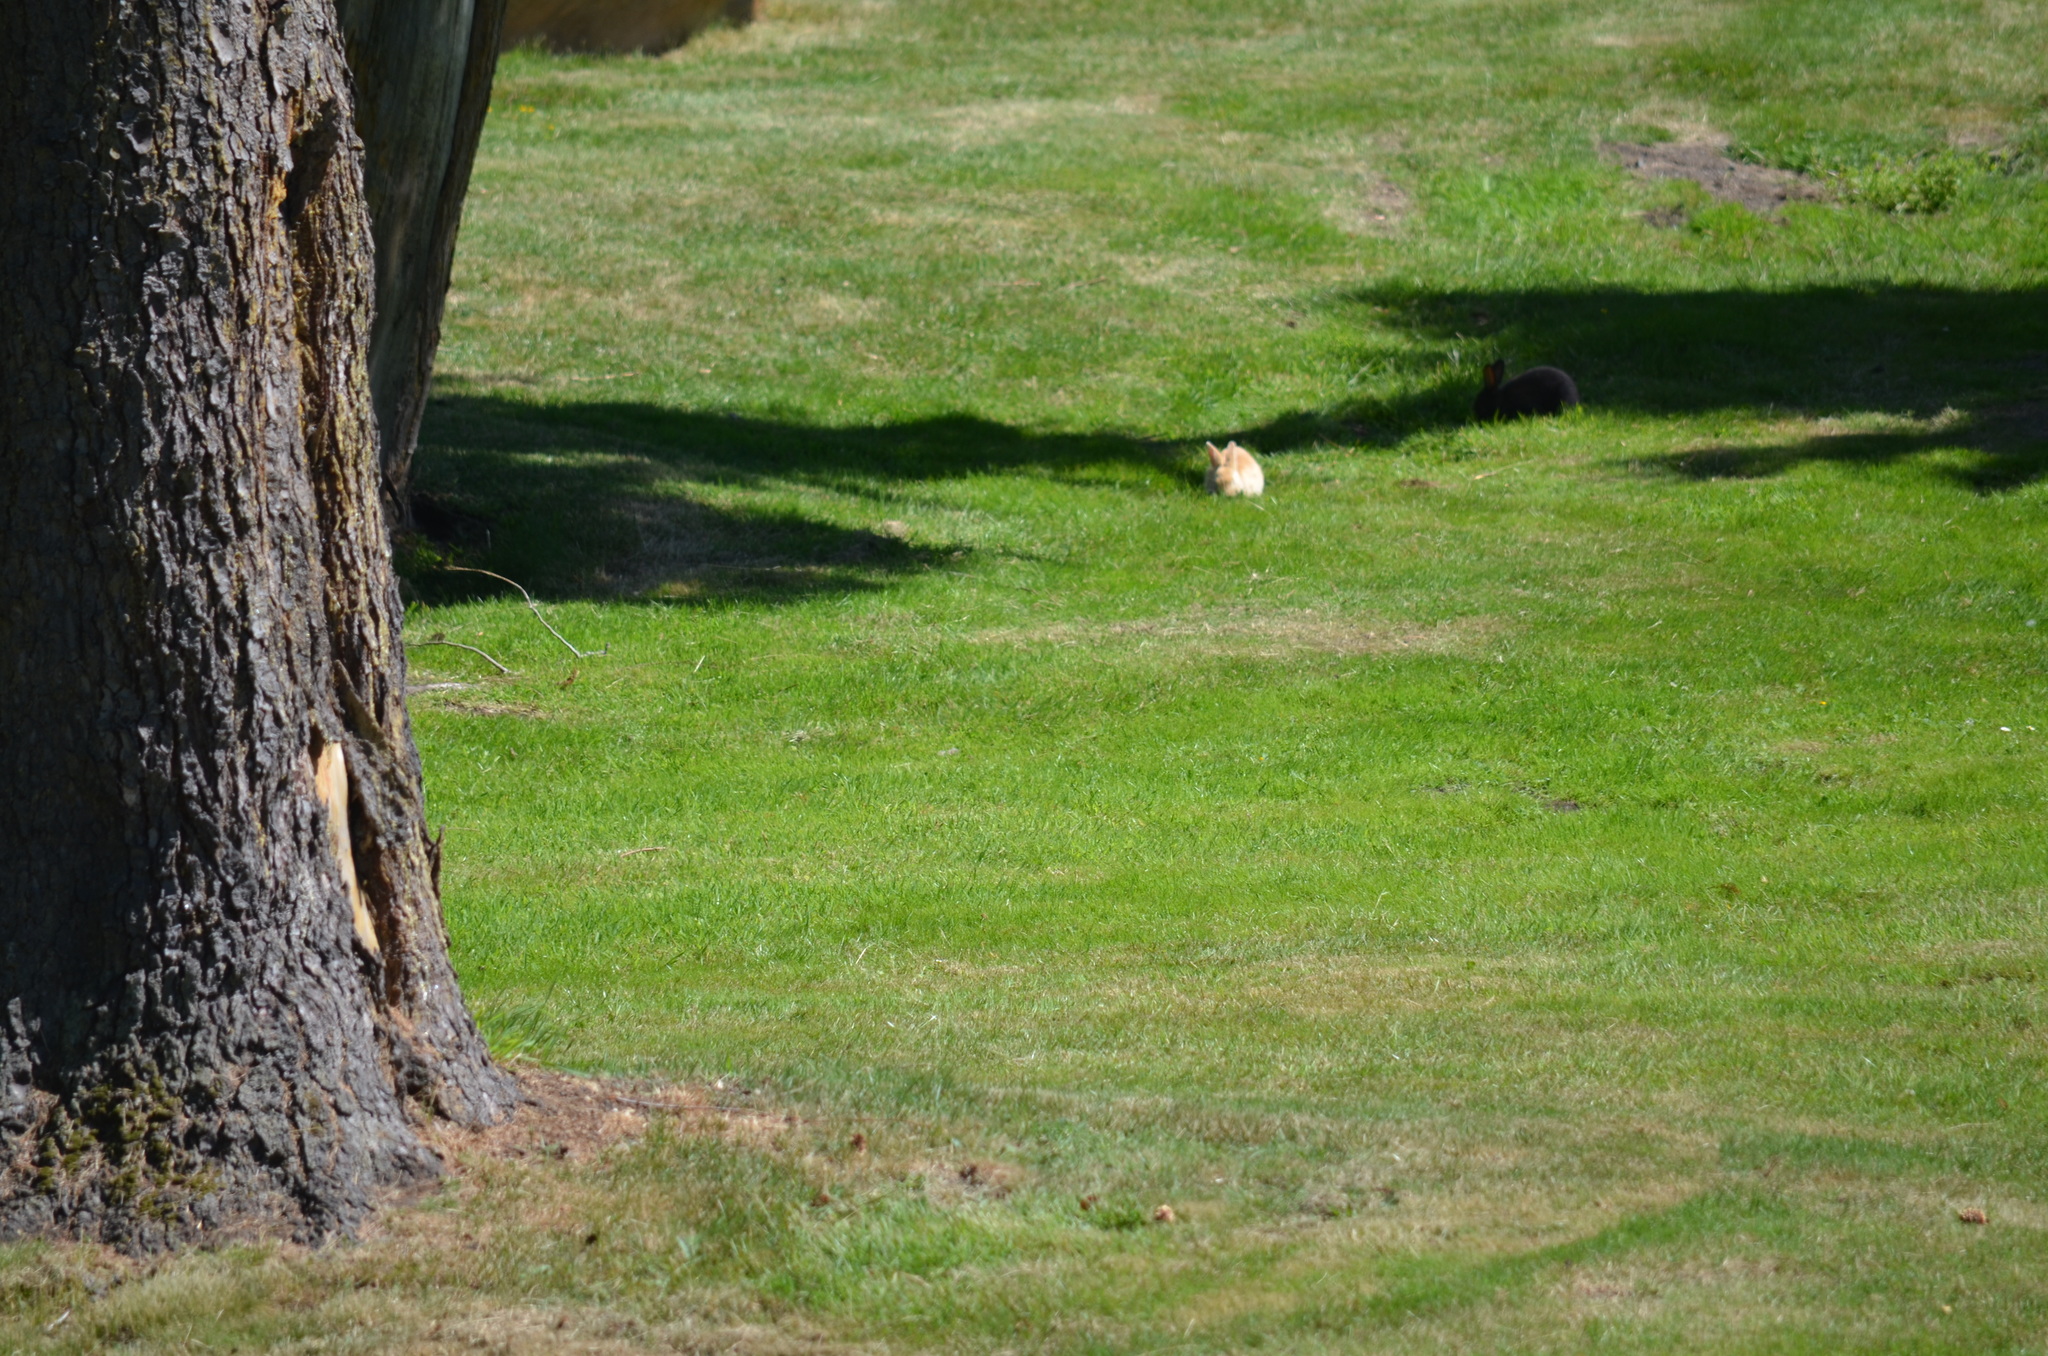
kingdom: Animalia
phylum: Chordata
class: Mammalia
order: Lagomorpha
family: Leporidae
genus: Oryctolagus
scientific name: Oryctolagus cuniculus
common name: European rabbit
